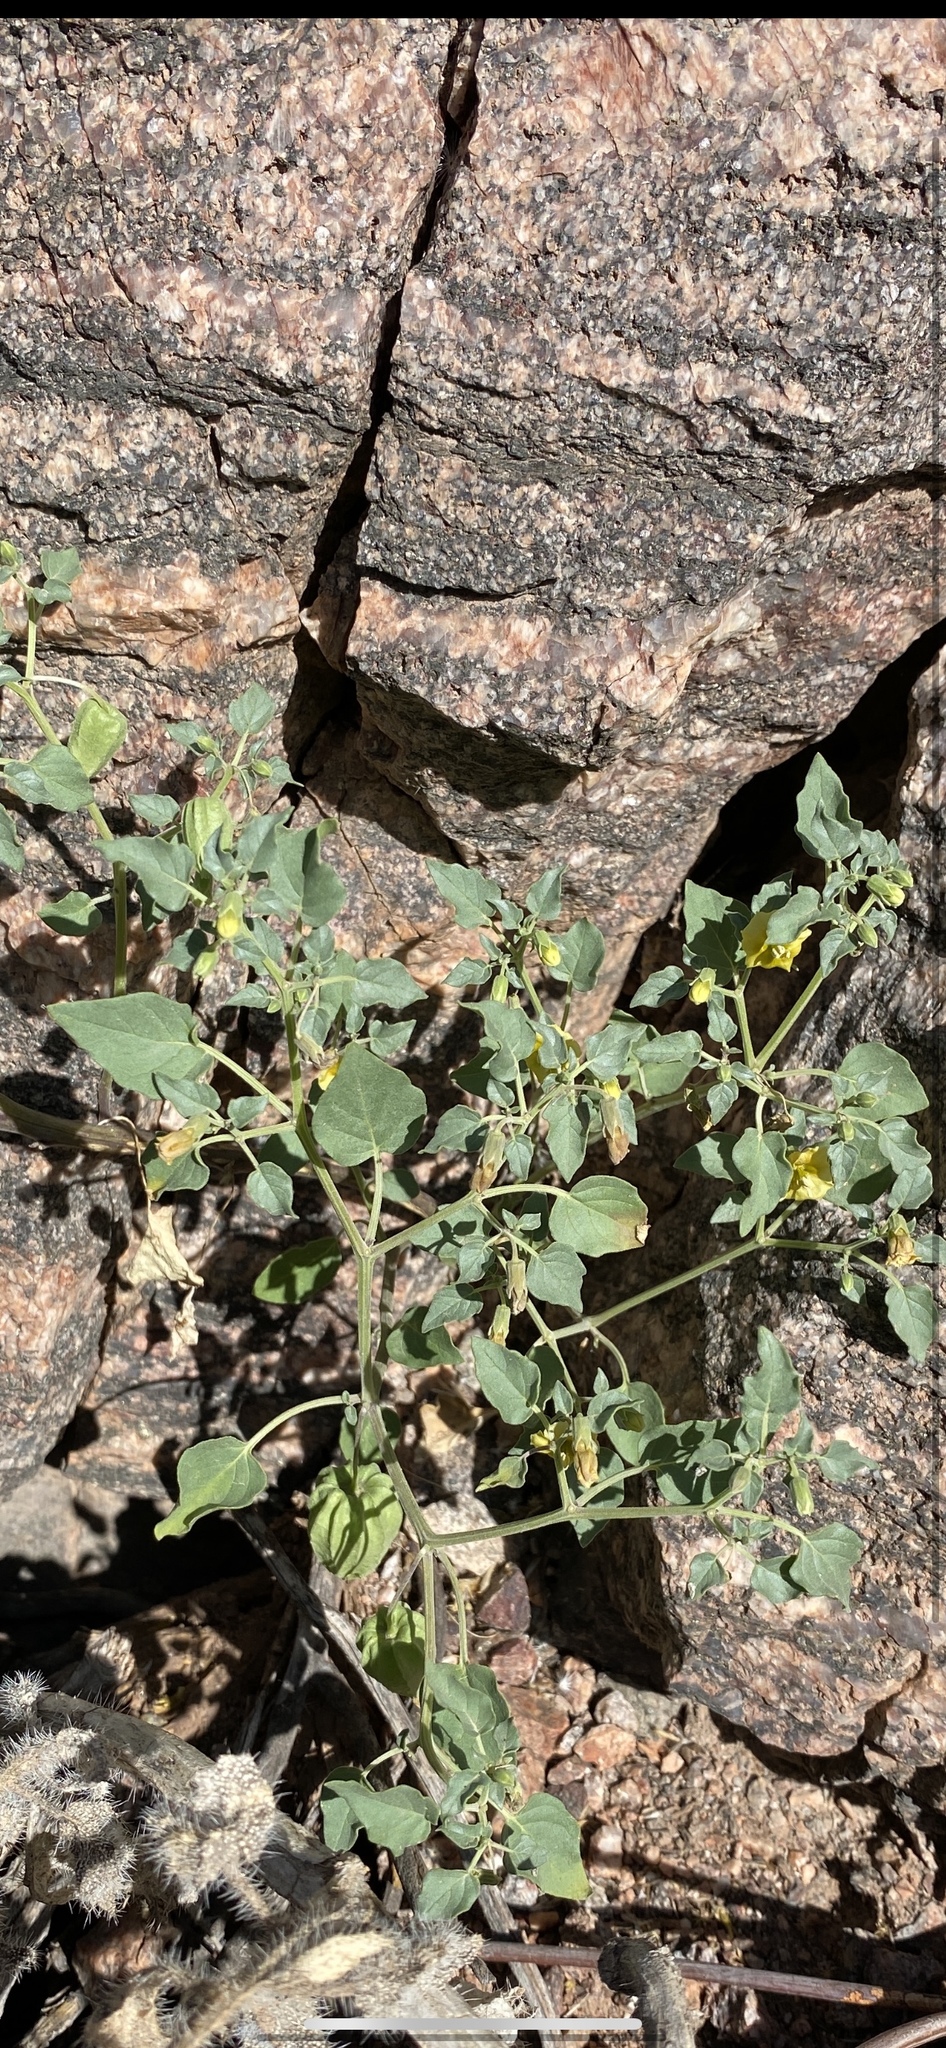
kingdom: Plantae
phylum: Tracheophyta
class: Magnoliopsida
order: Solanales
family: Solanaceae
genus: Physalis
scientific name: Physalis crassifolia
